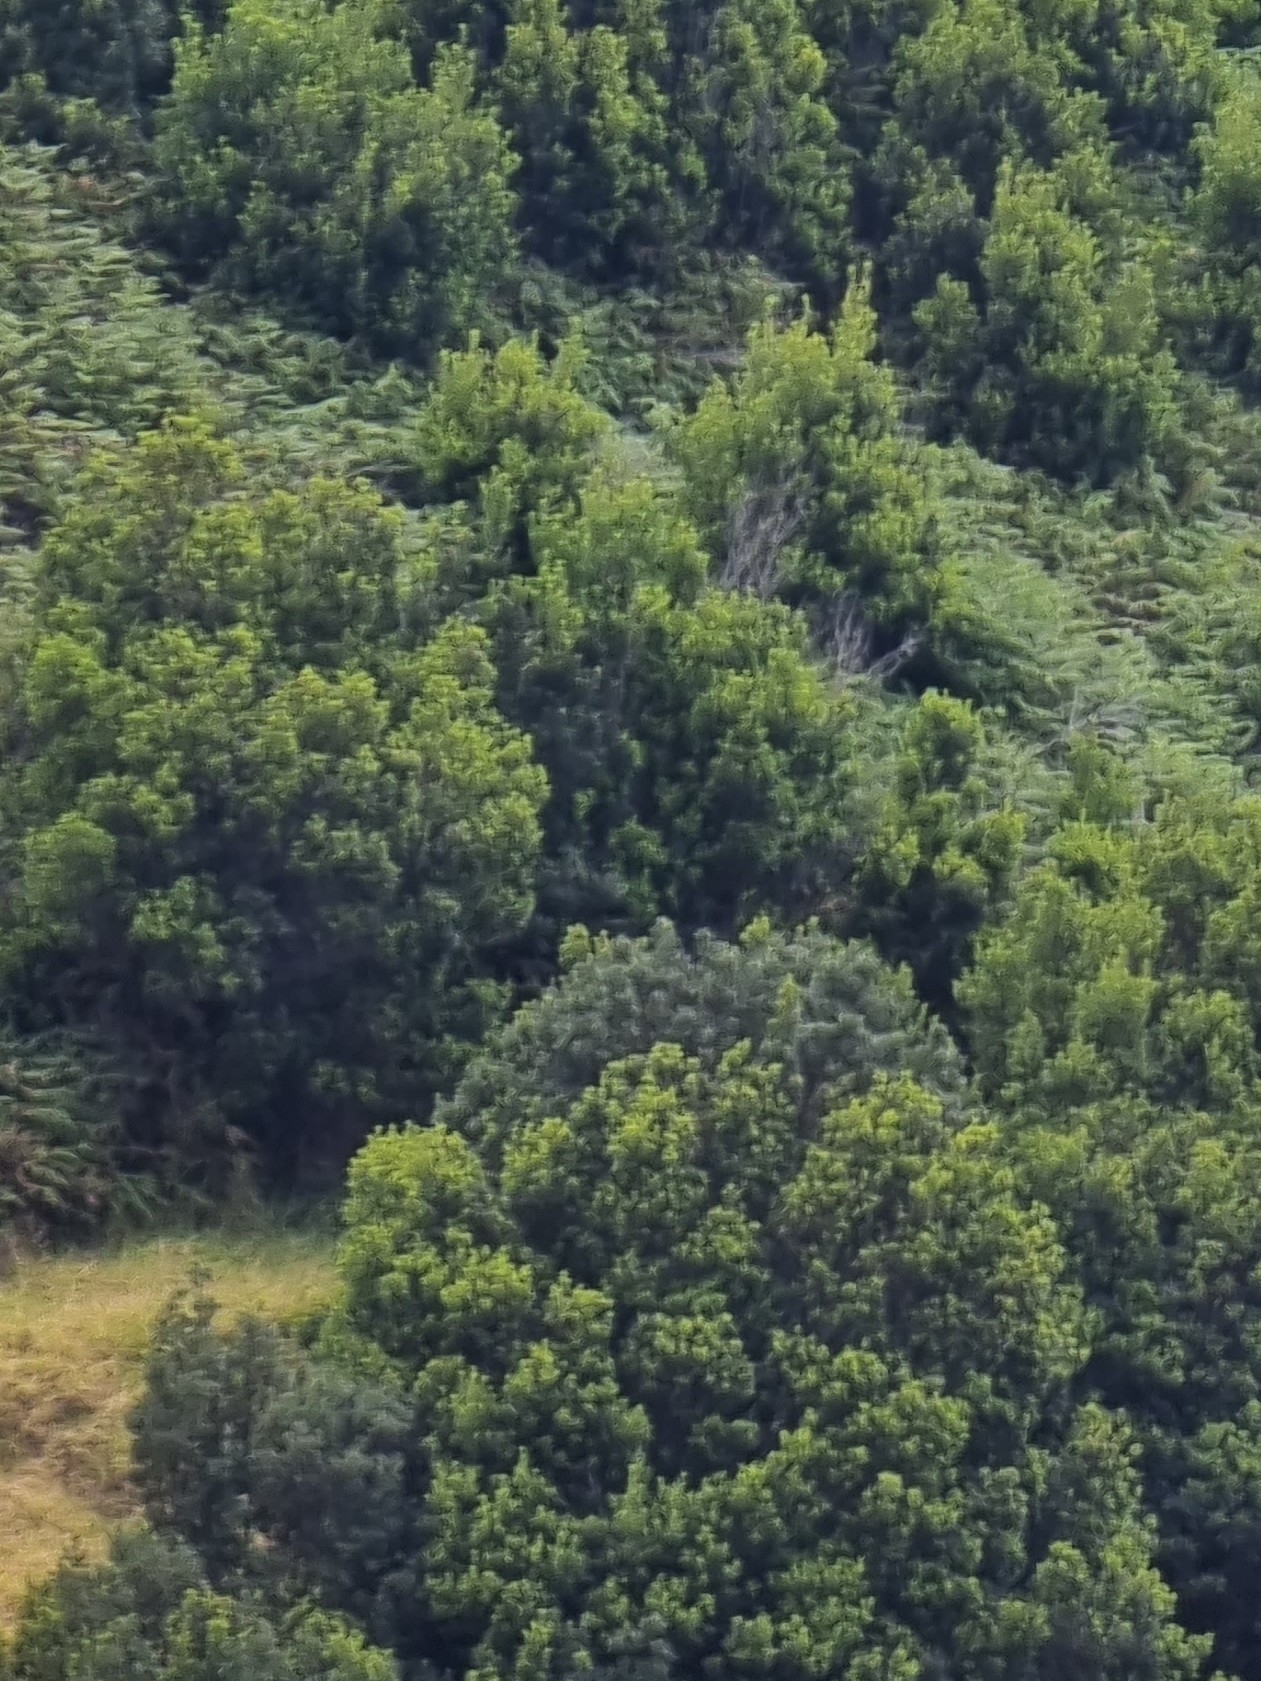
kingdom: Plantae
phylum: Tracheophyta
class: Magnoliopsida
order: Fagales
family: Myricaceae
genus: Morella
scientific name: Morella faya
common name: Firetree
